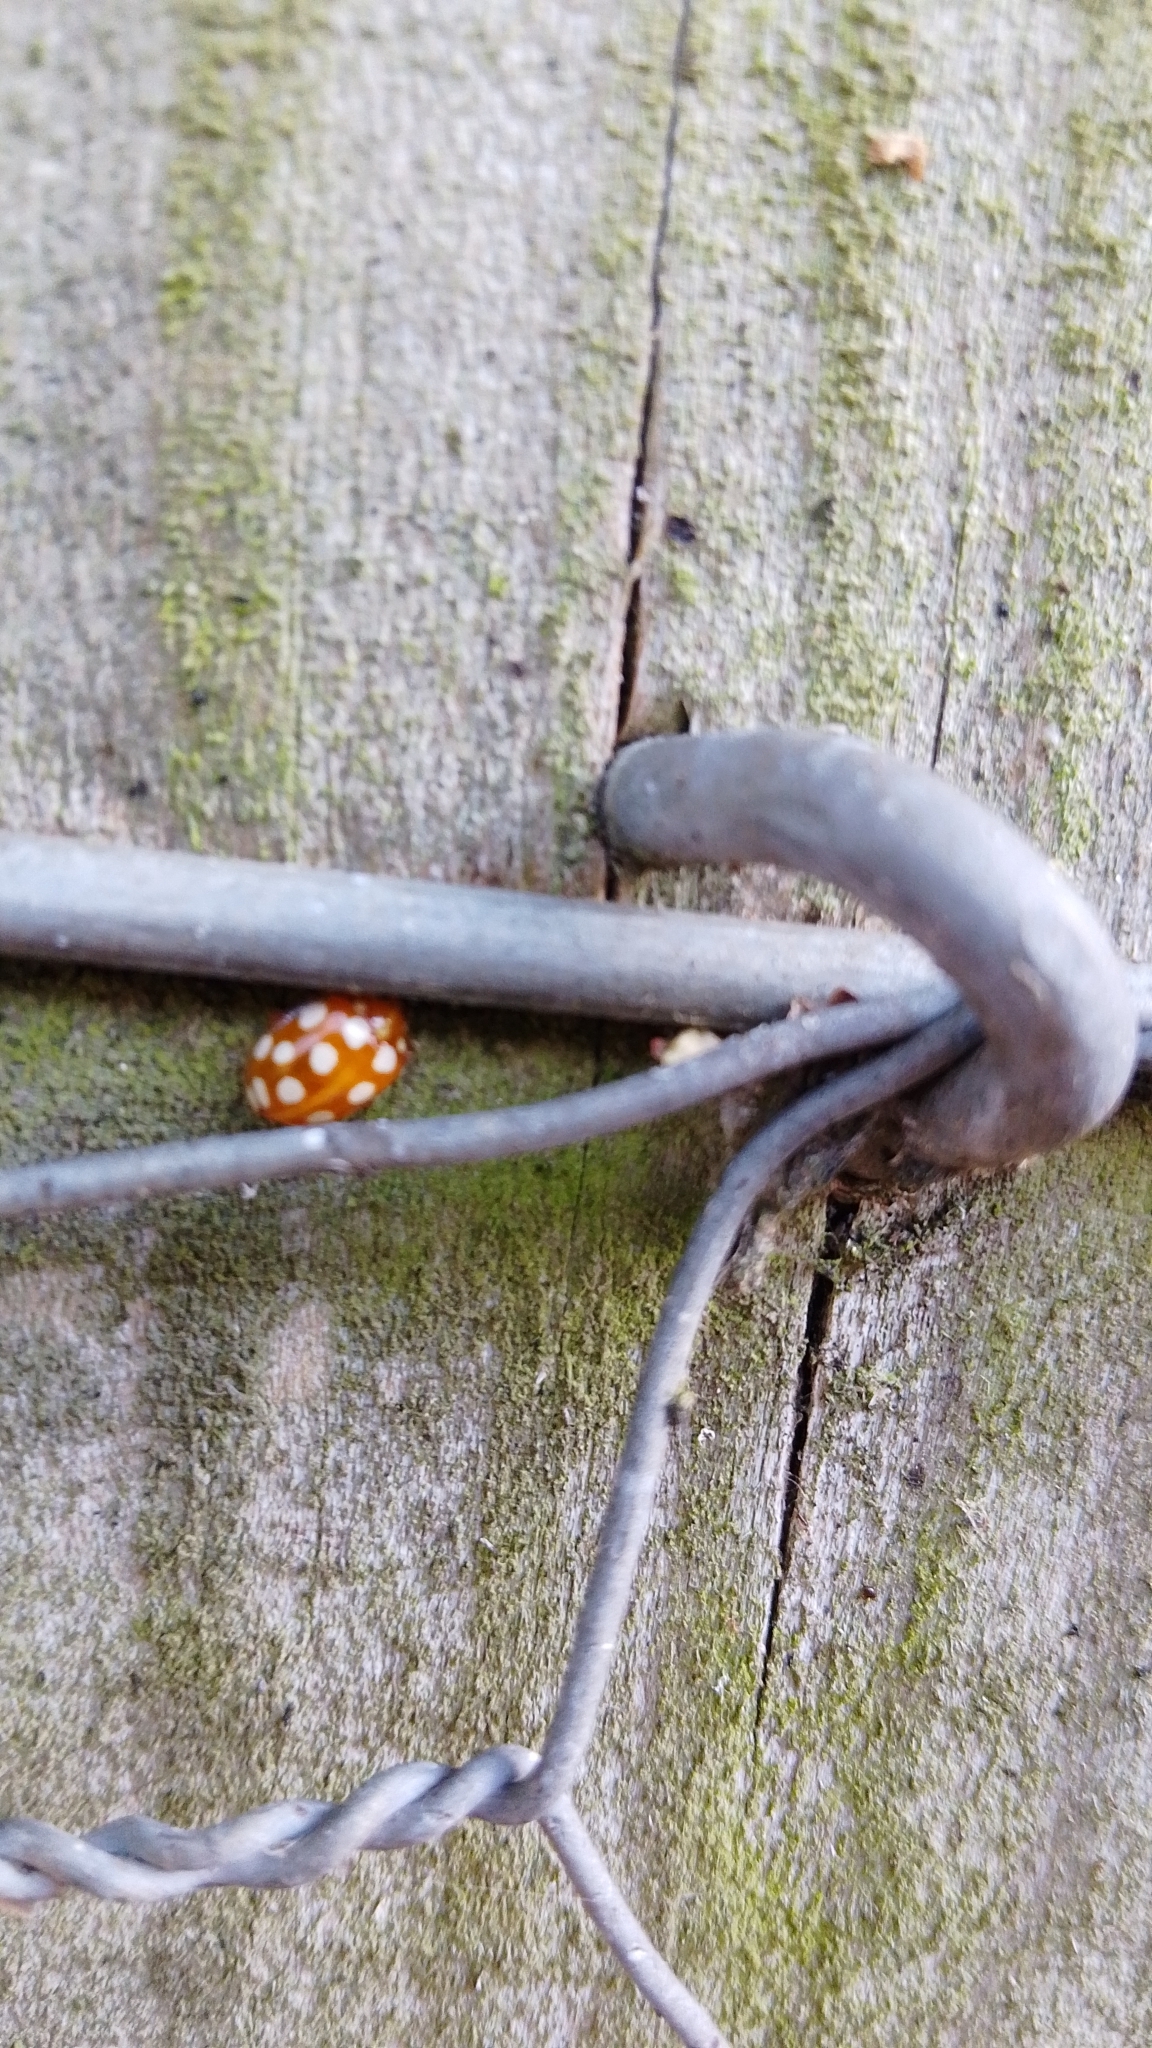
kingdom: Animalia
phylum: Arthropoda
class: Insecta
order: Coleoptera
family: Coccinellidae
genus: Halyzia
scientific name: Halyzia sedecimguttata
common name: Orange ladybird
